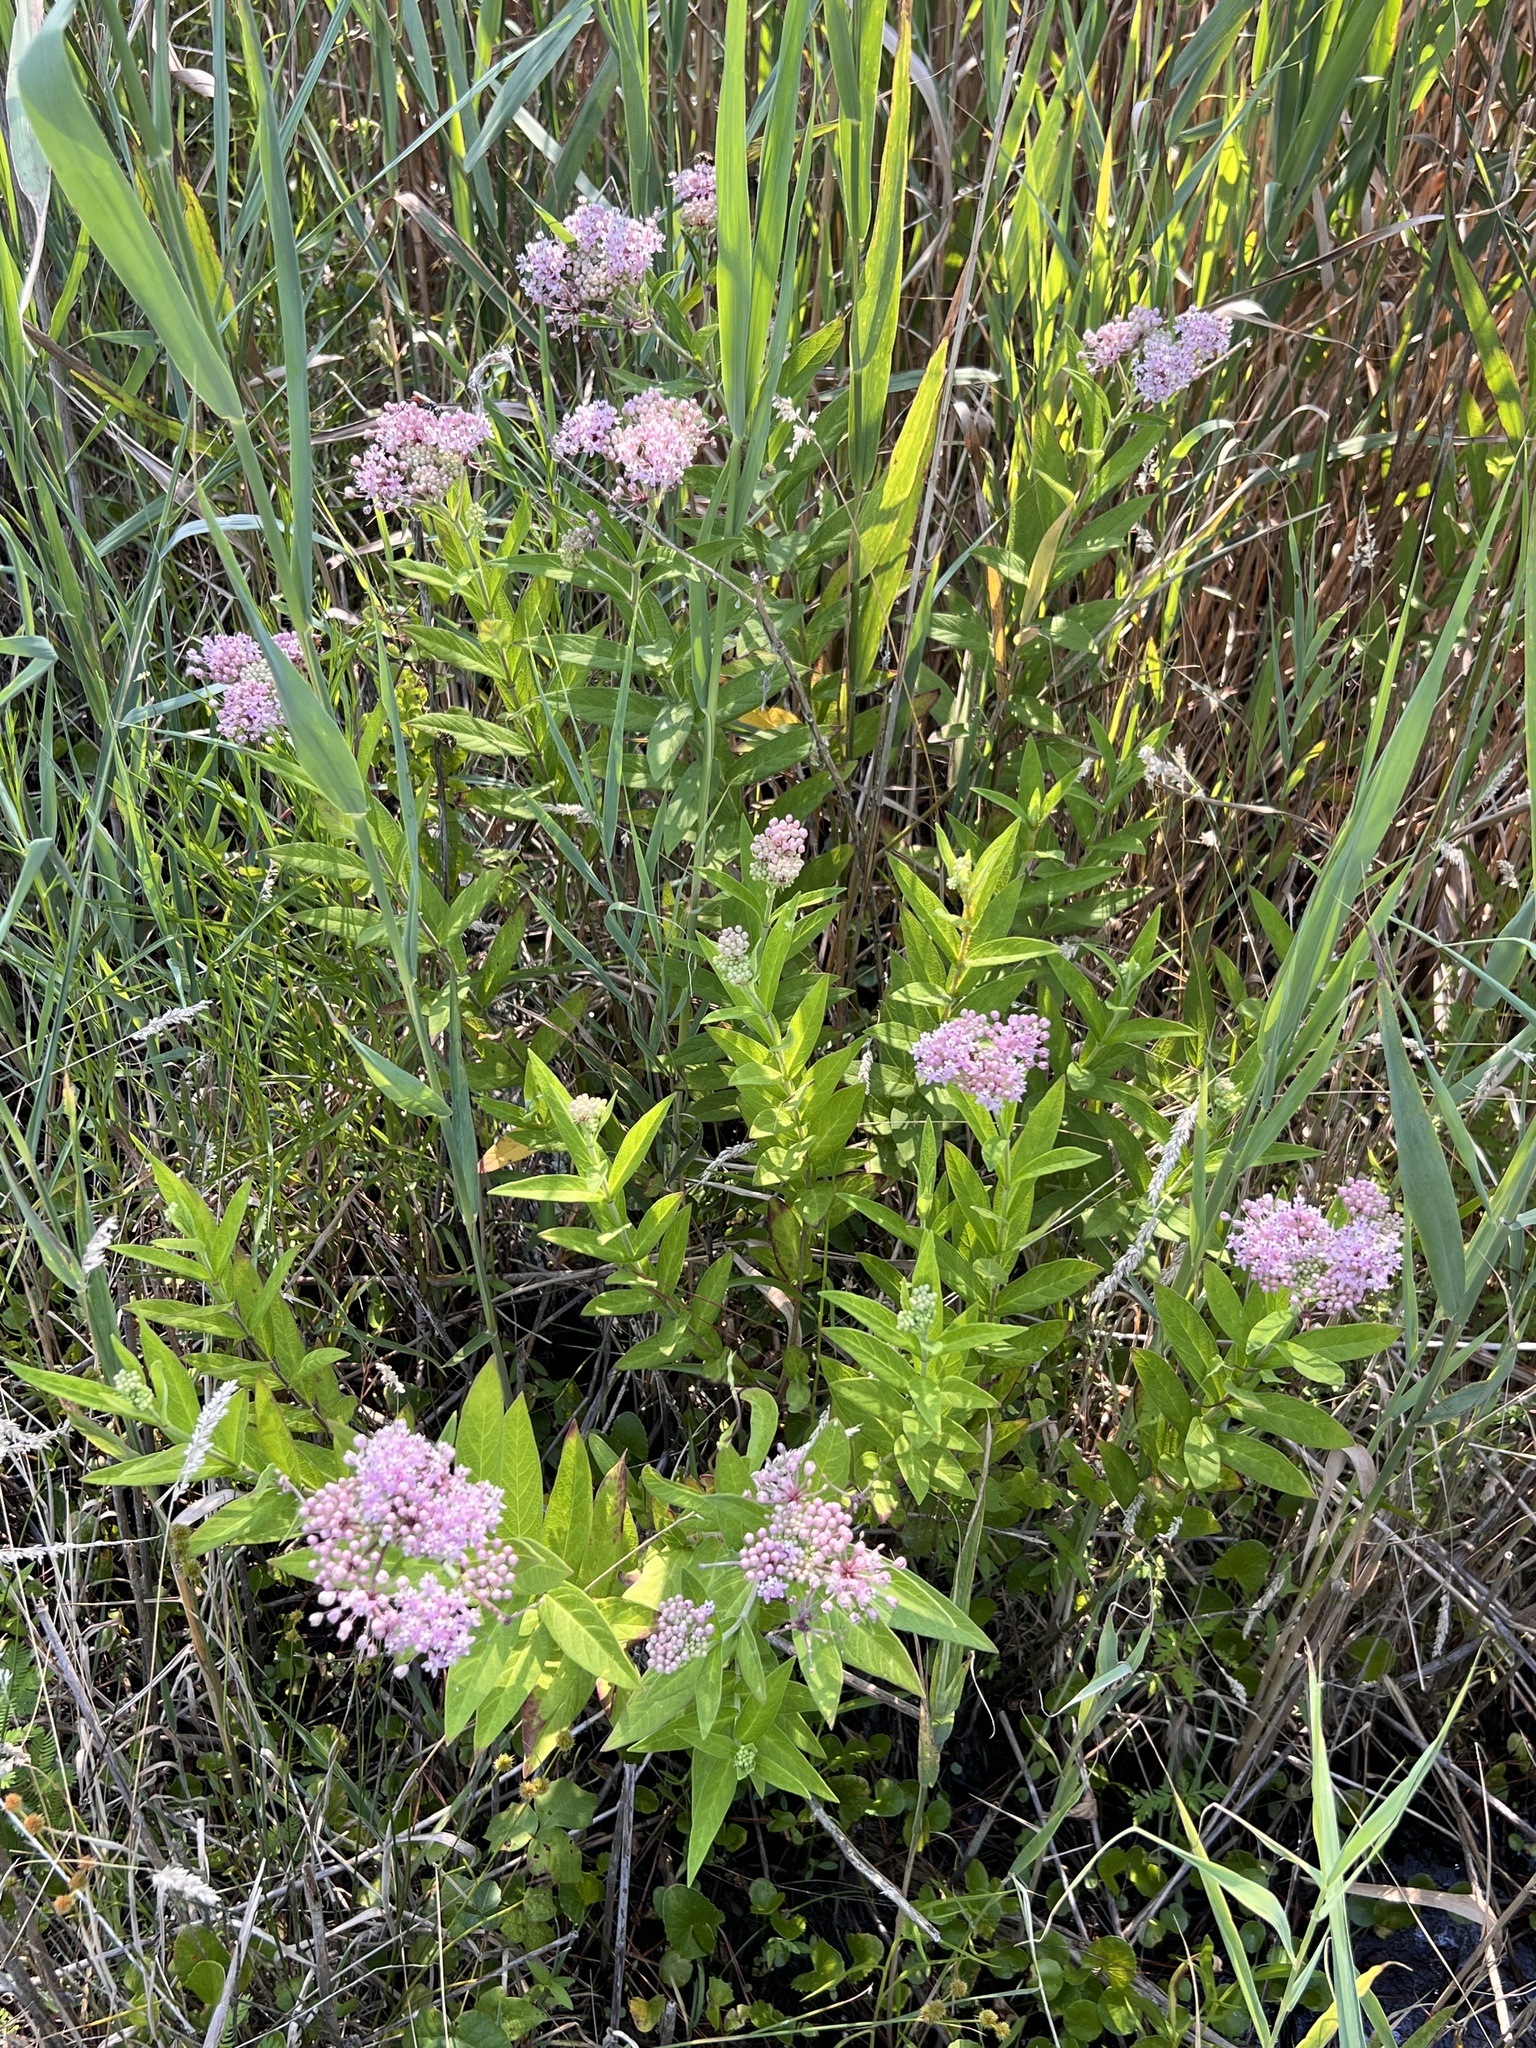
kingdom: Plantae
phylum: Tracheophyta
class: Magnoliopsida
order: Gentianales
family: Apocynaceae
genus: Asclepias
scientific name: Asclepias incarnata
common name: Swamp milkweed
